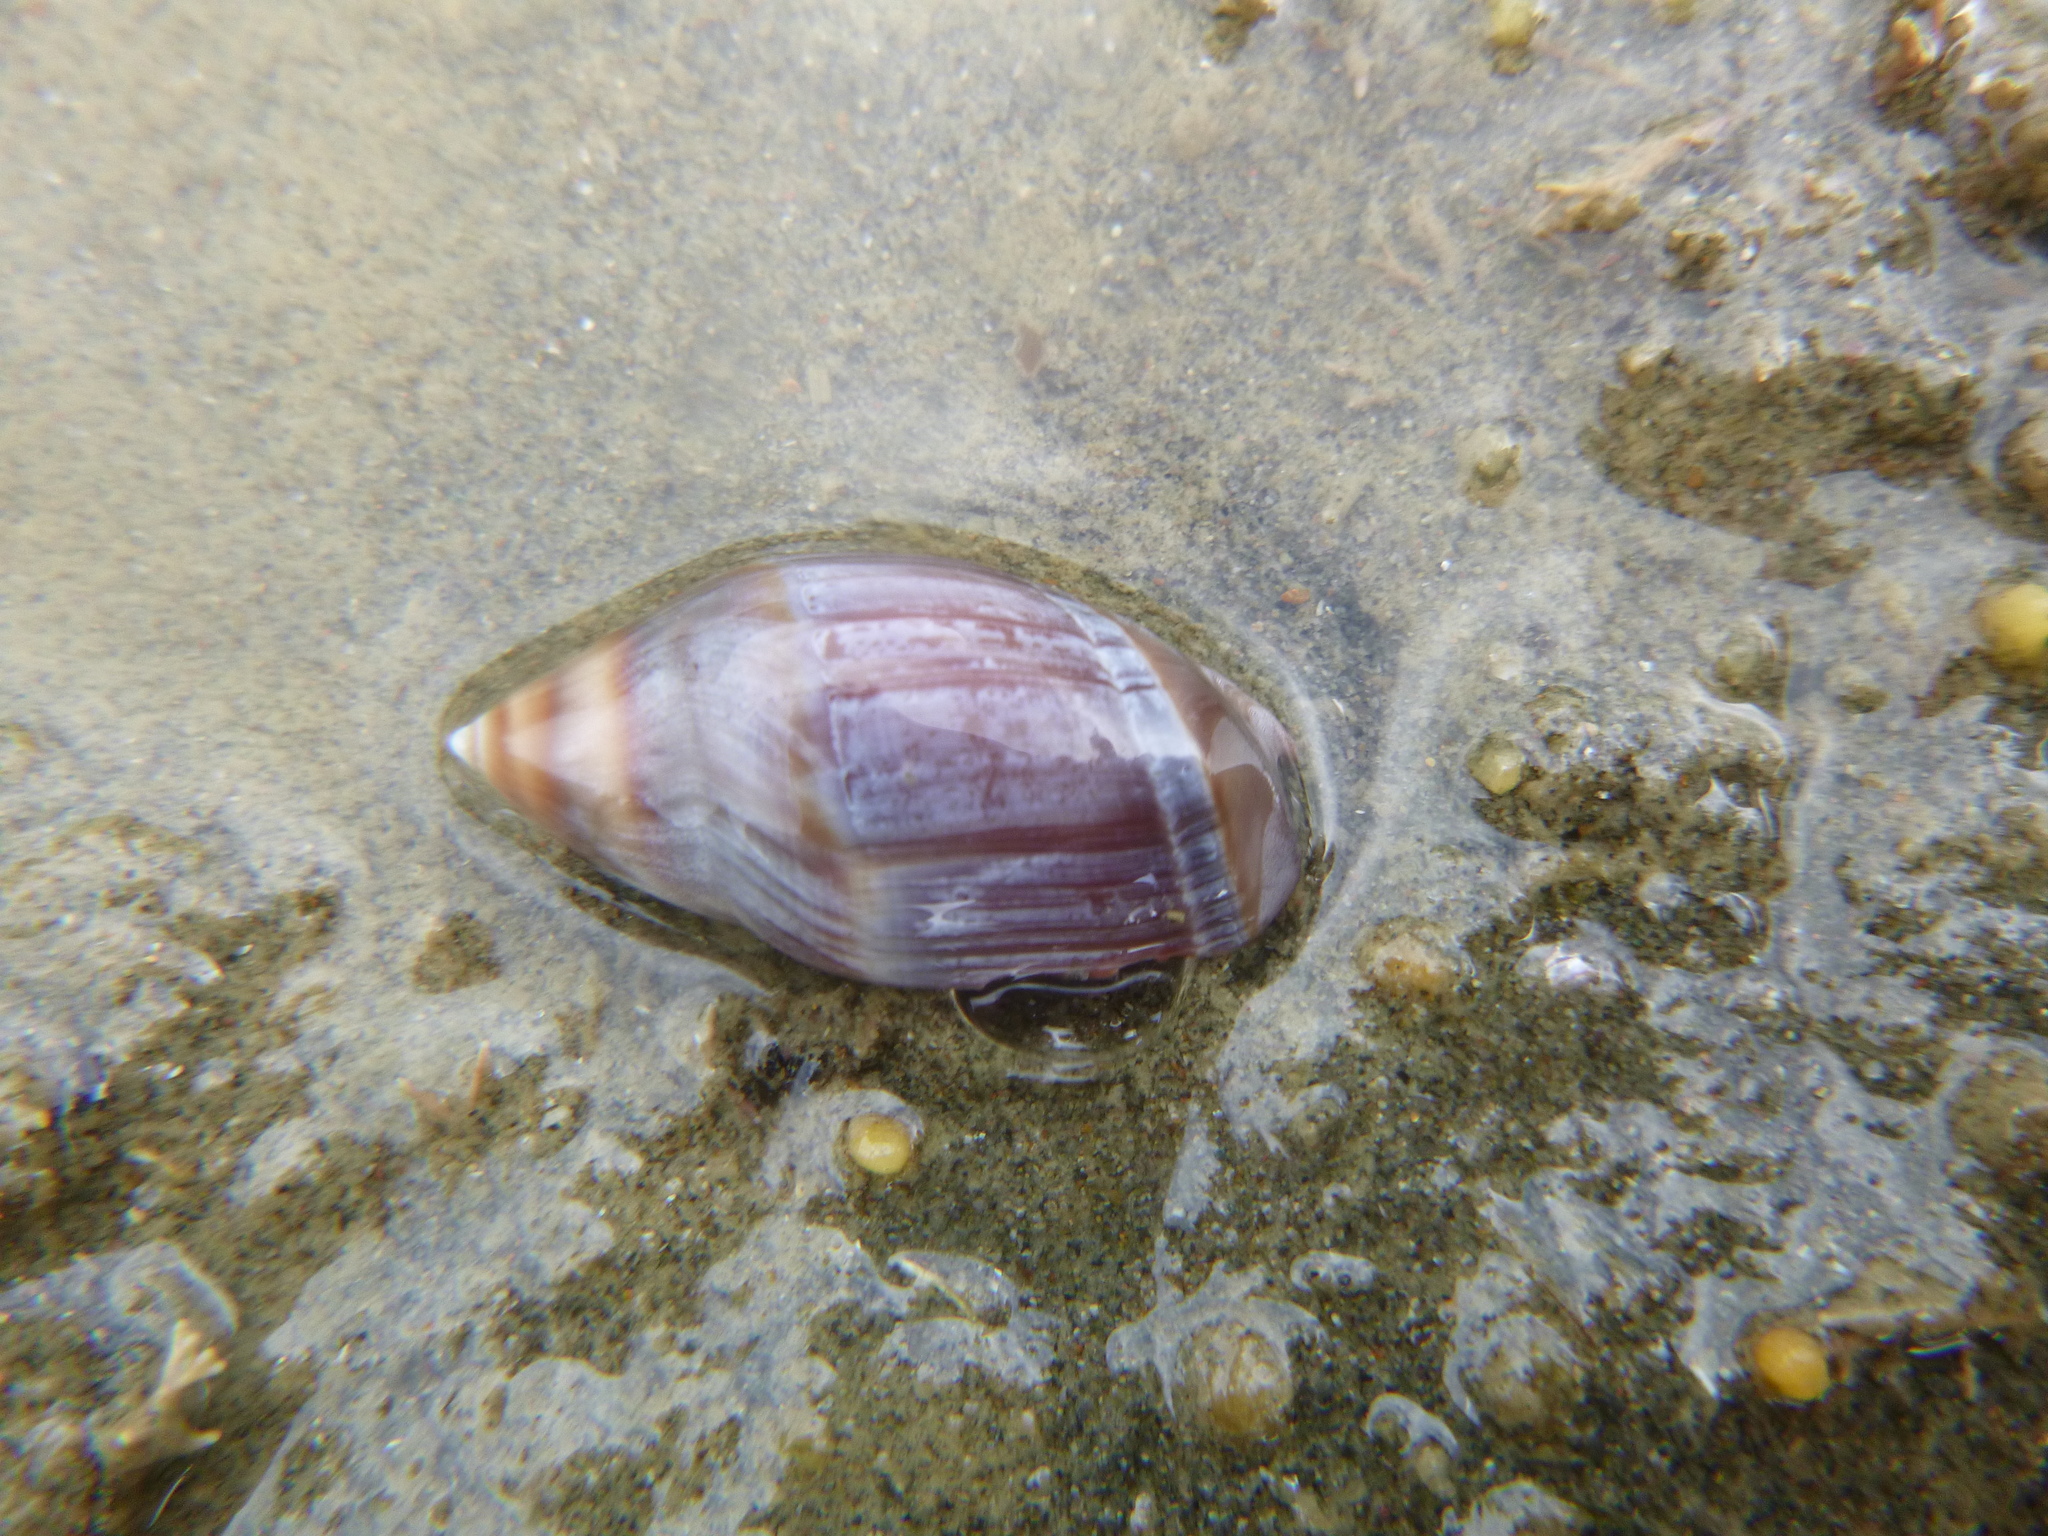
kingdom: Animalia
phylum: Mollusca
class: Gastropoda
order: Neogastropoda
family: Ancillariidae
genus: Amalda
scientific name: Amalda australis
